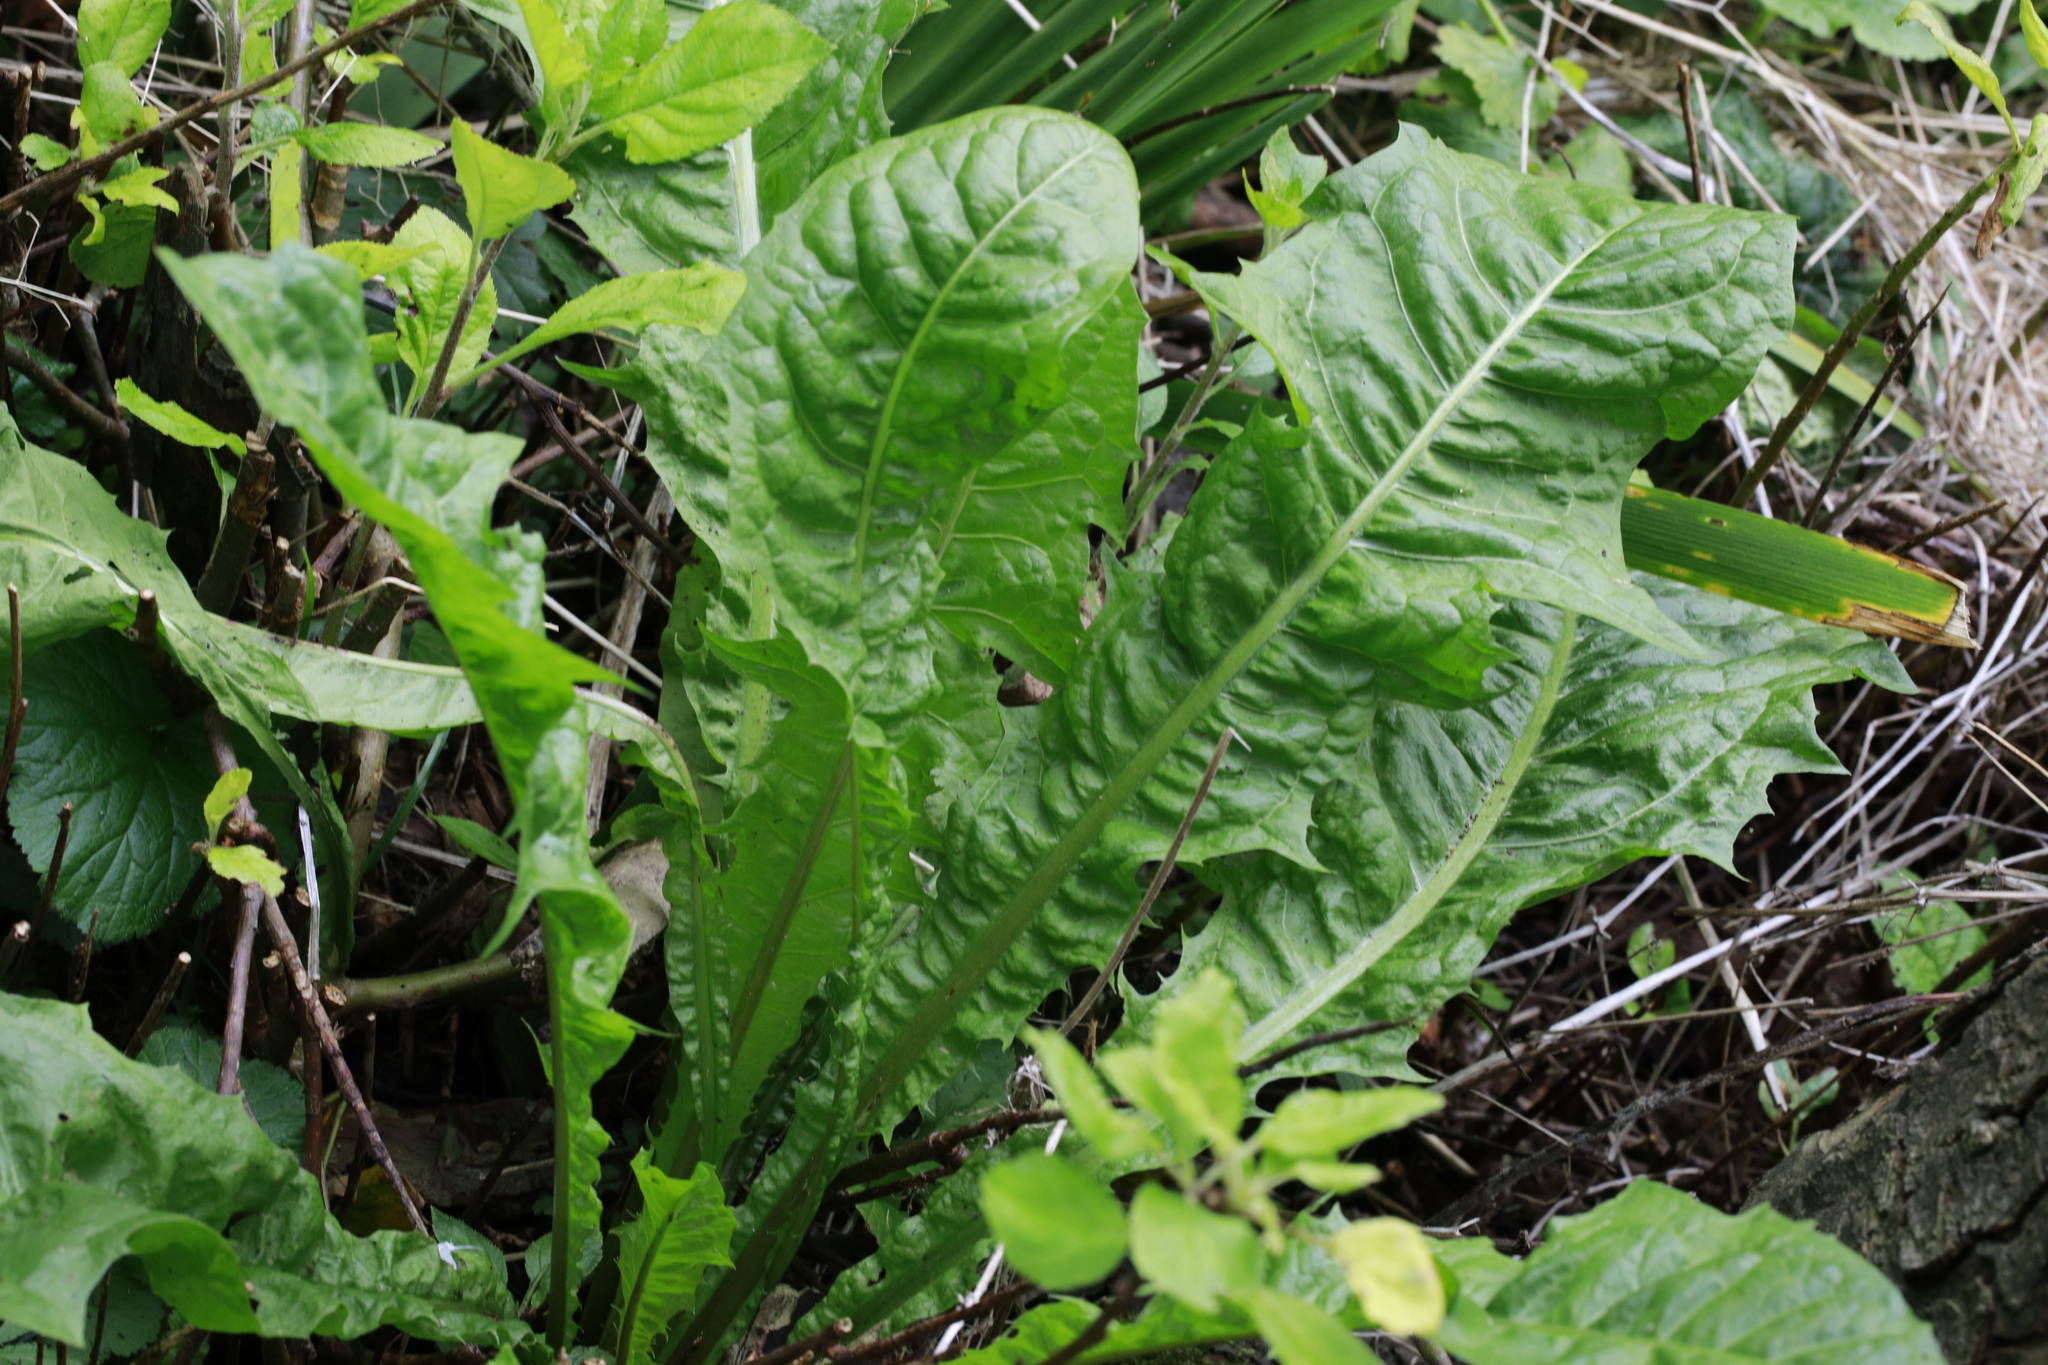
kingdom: Plantae
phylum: Tracheophyta
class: Magnoliopsida
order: Asterales
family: Asteraceae
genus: Taraxacum
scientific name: Taraxacum officinale
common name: Common dandelion
